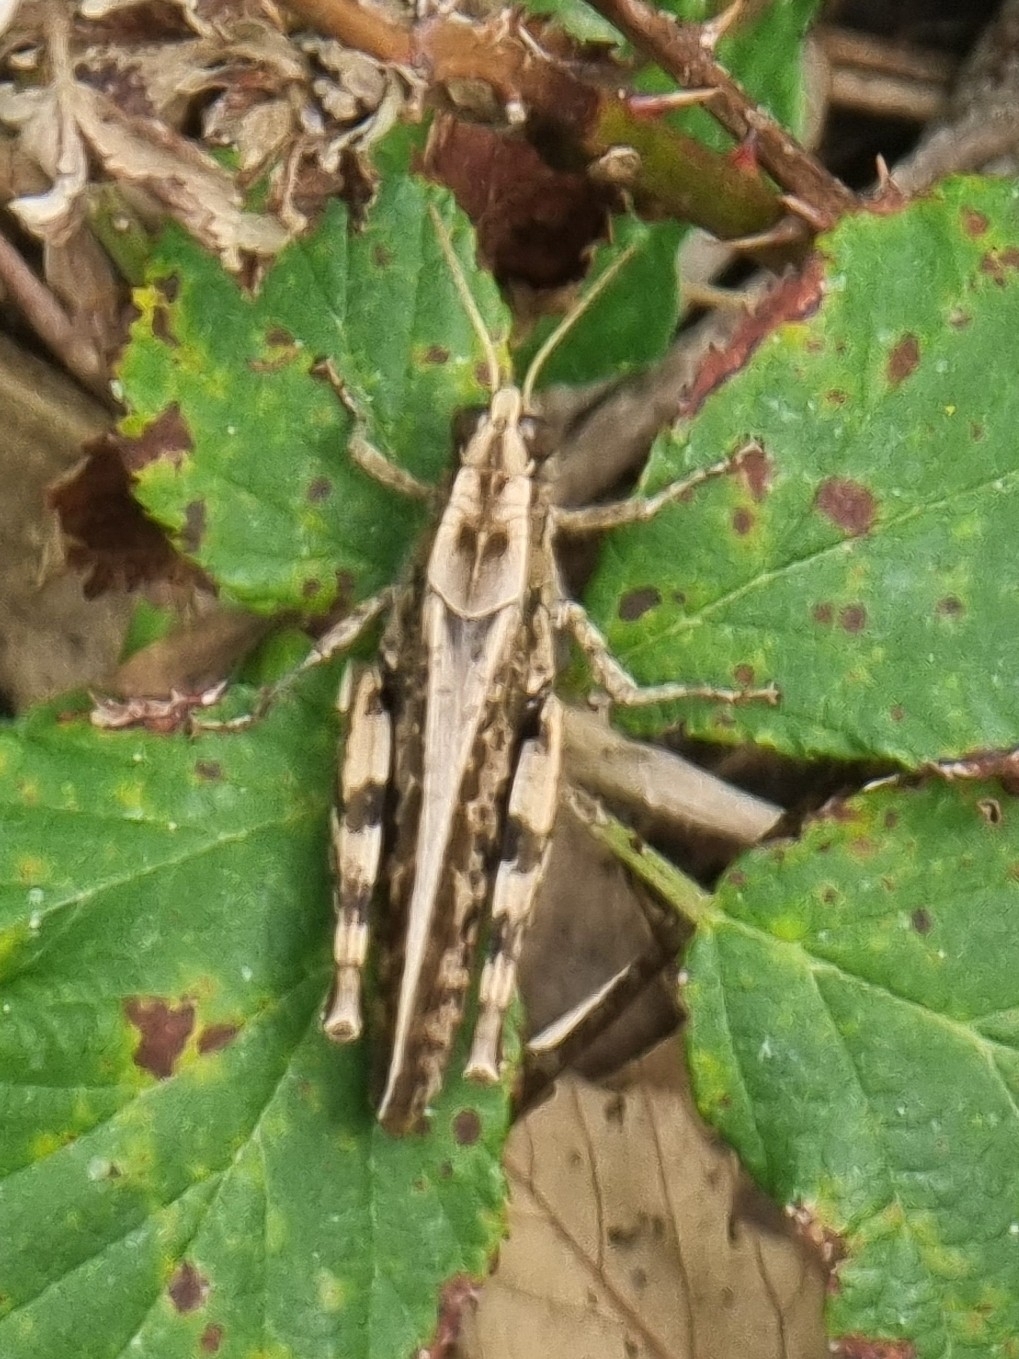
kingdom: Animalia
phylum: Arthropoda
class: Insecta
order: Orthoptera
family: Acrididae
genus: Calliptamus
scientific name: Calliptamus madeirae
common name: Madeira pincer grasshopper
